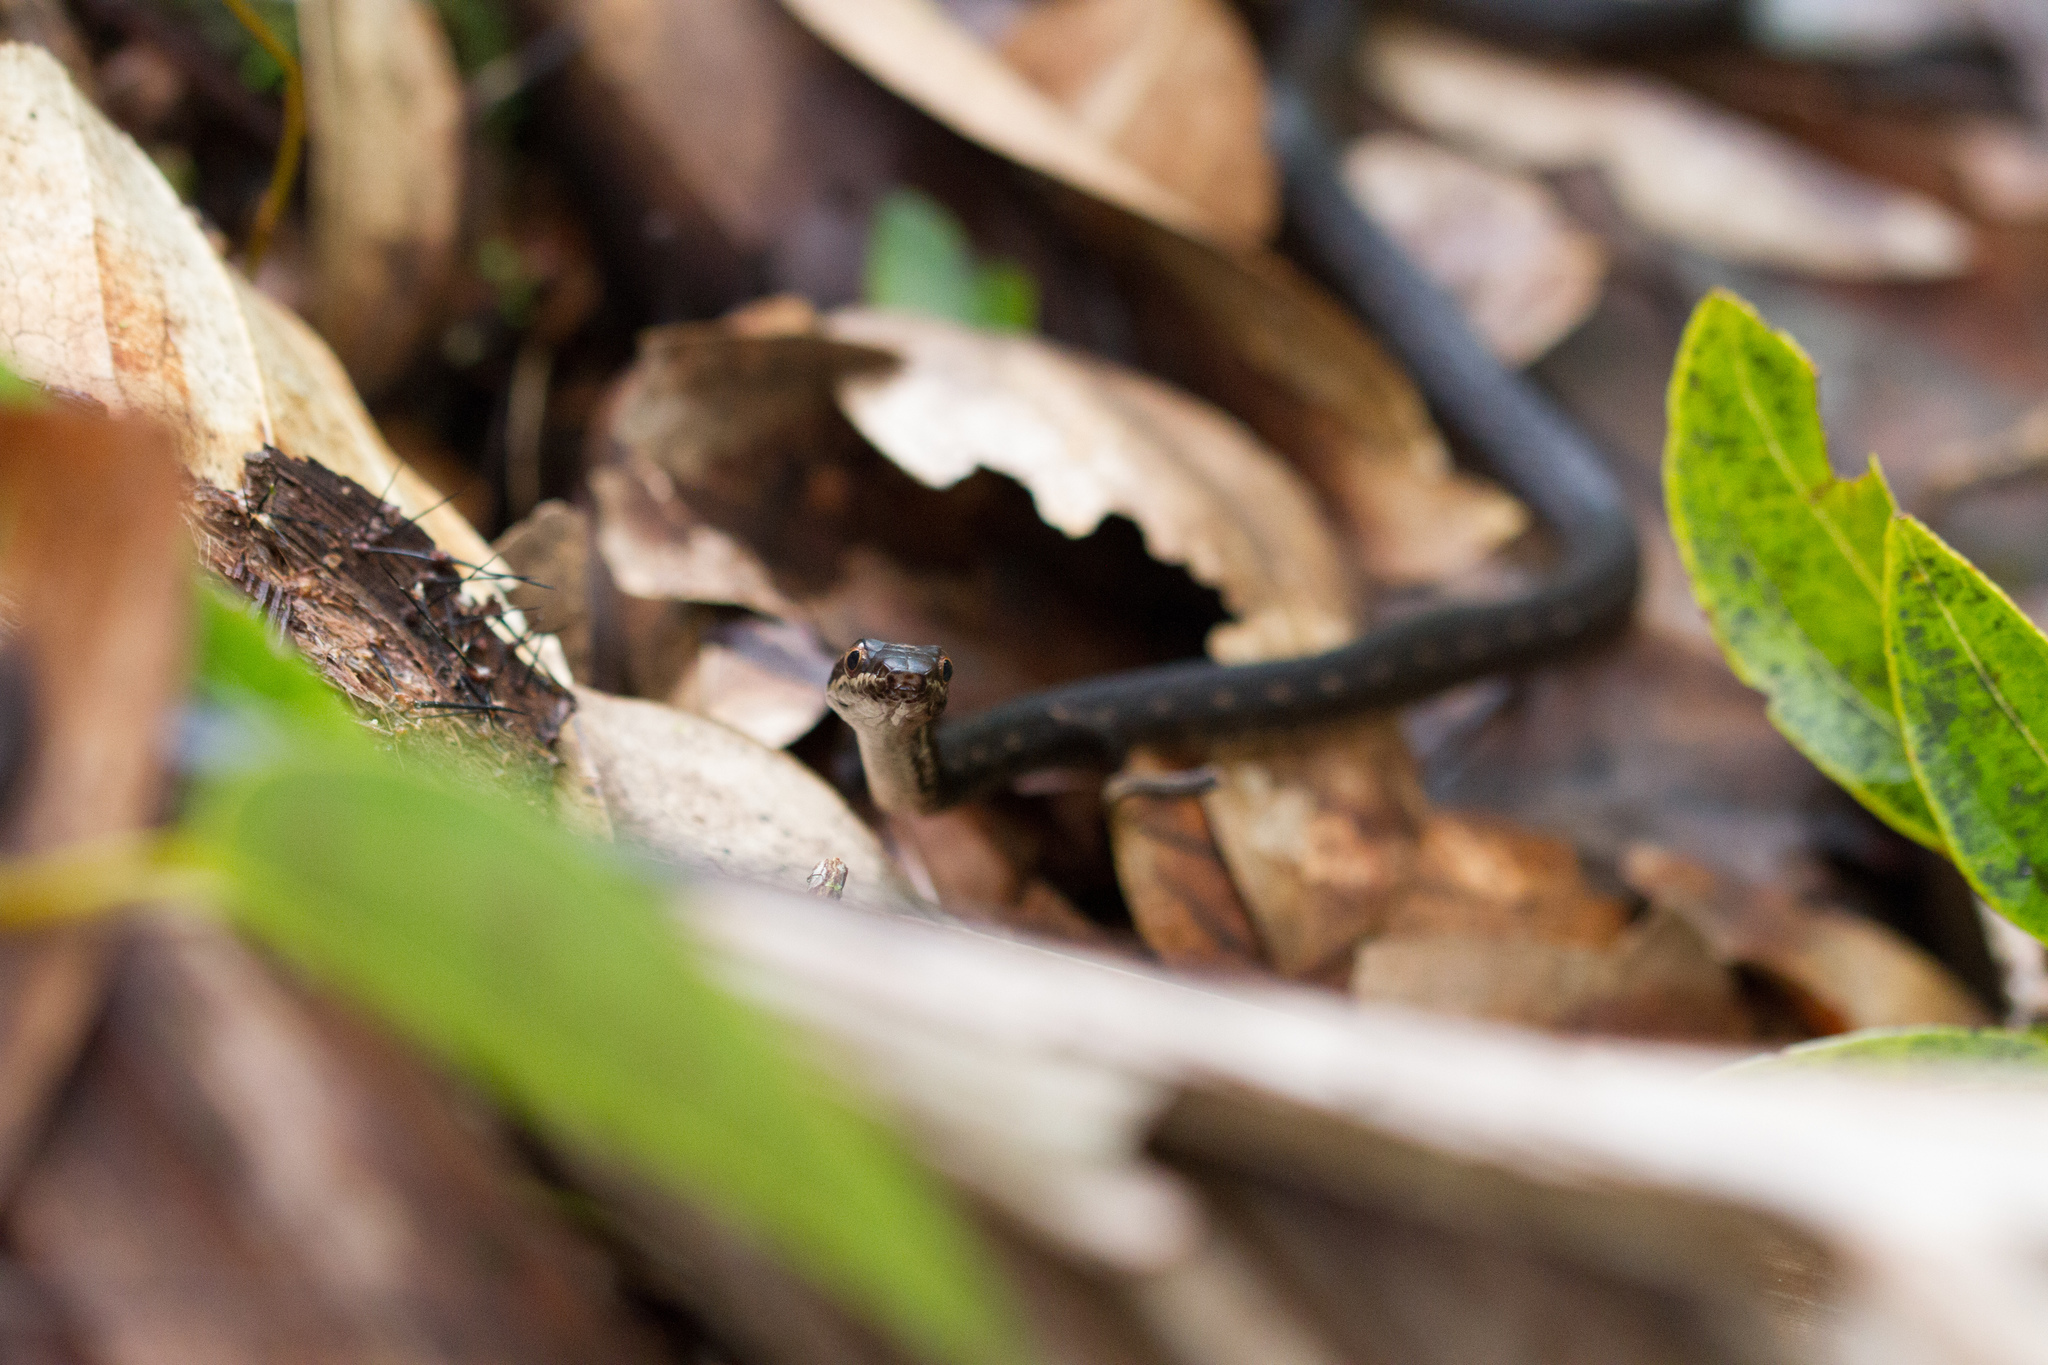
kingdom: Animalia
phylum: Chordata
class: Squamata
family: Colubridae
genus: Lycognathophis
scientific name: Lycognathophis seychellensis
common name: Seychelles wolf snake
